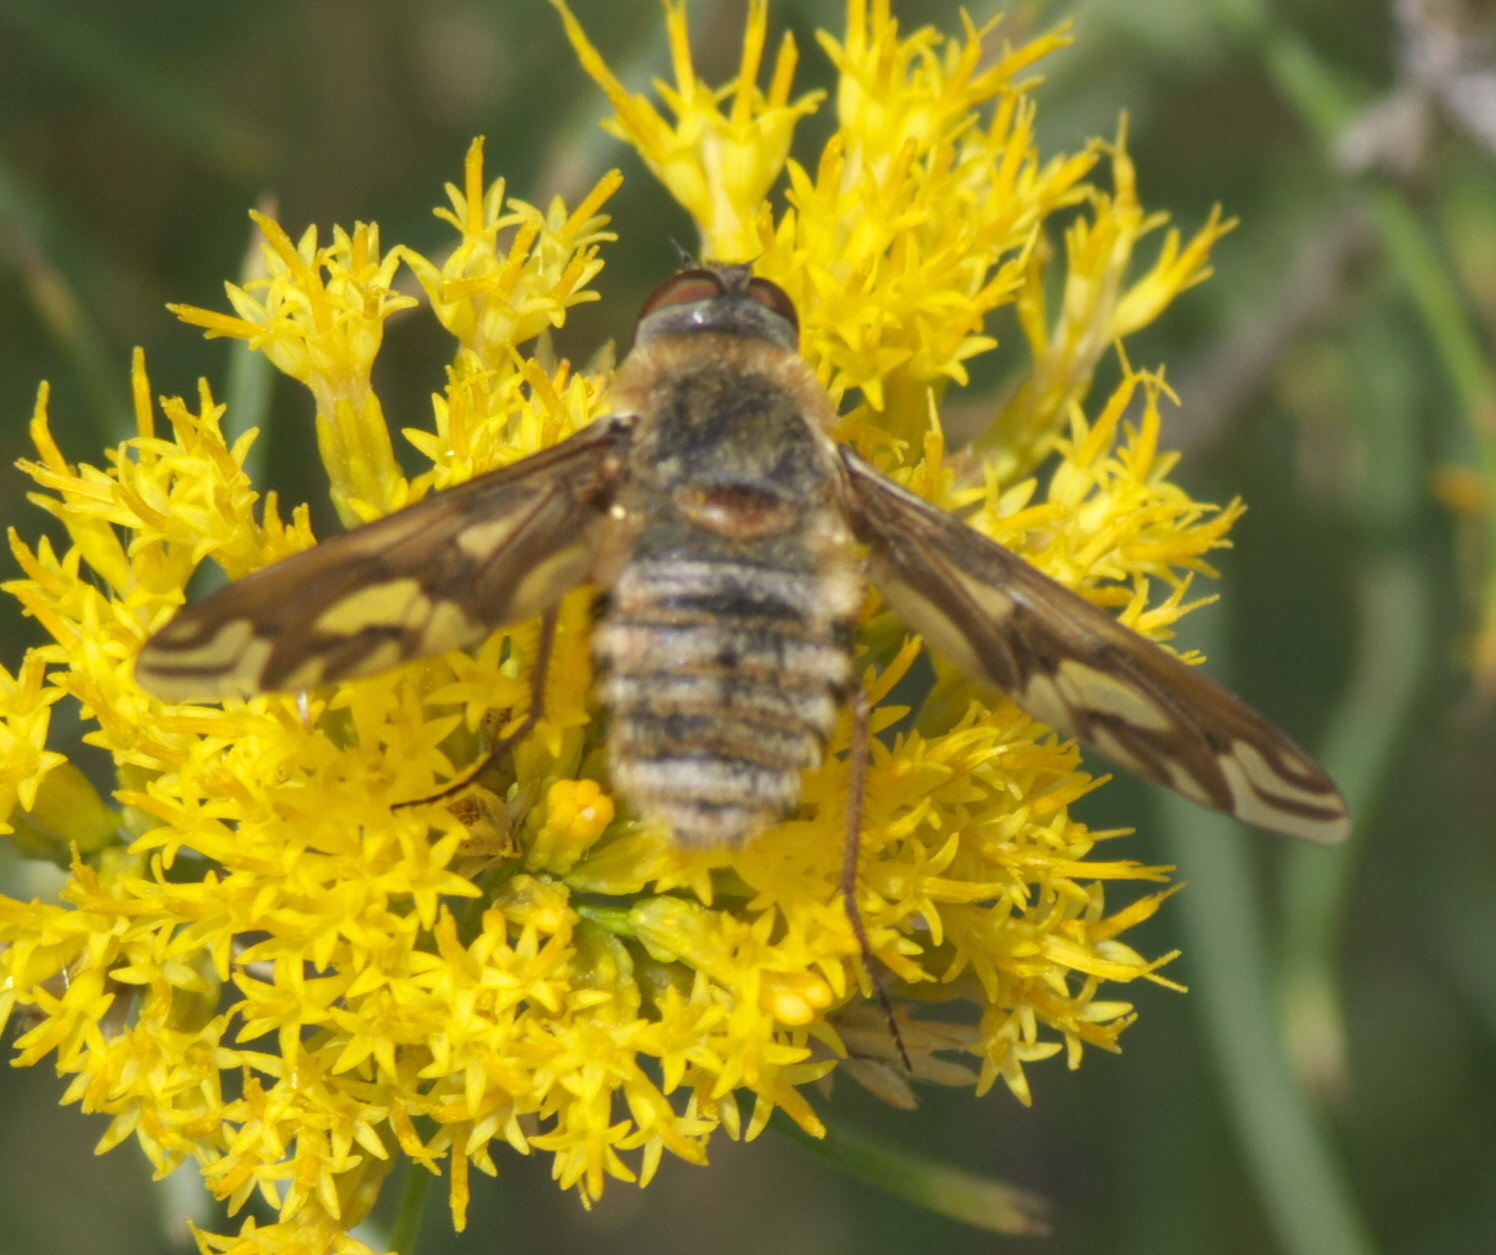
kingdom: Animalia
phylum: Arthropoda
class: Insecta
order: Diptera
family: Bombyliidae
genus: Poecilanthrax
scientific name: Poecilanthrax willistonii
